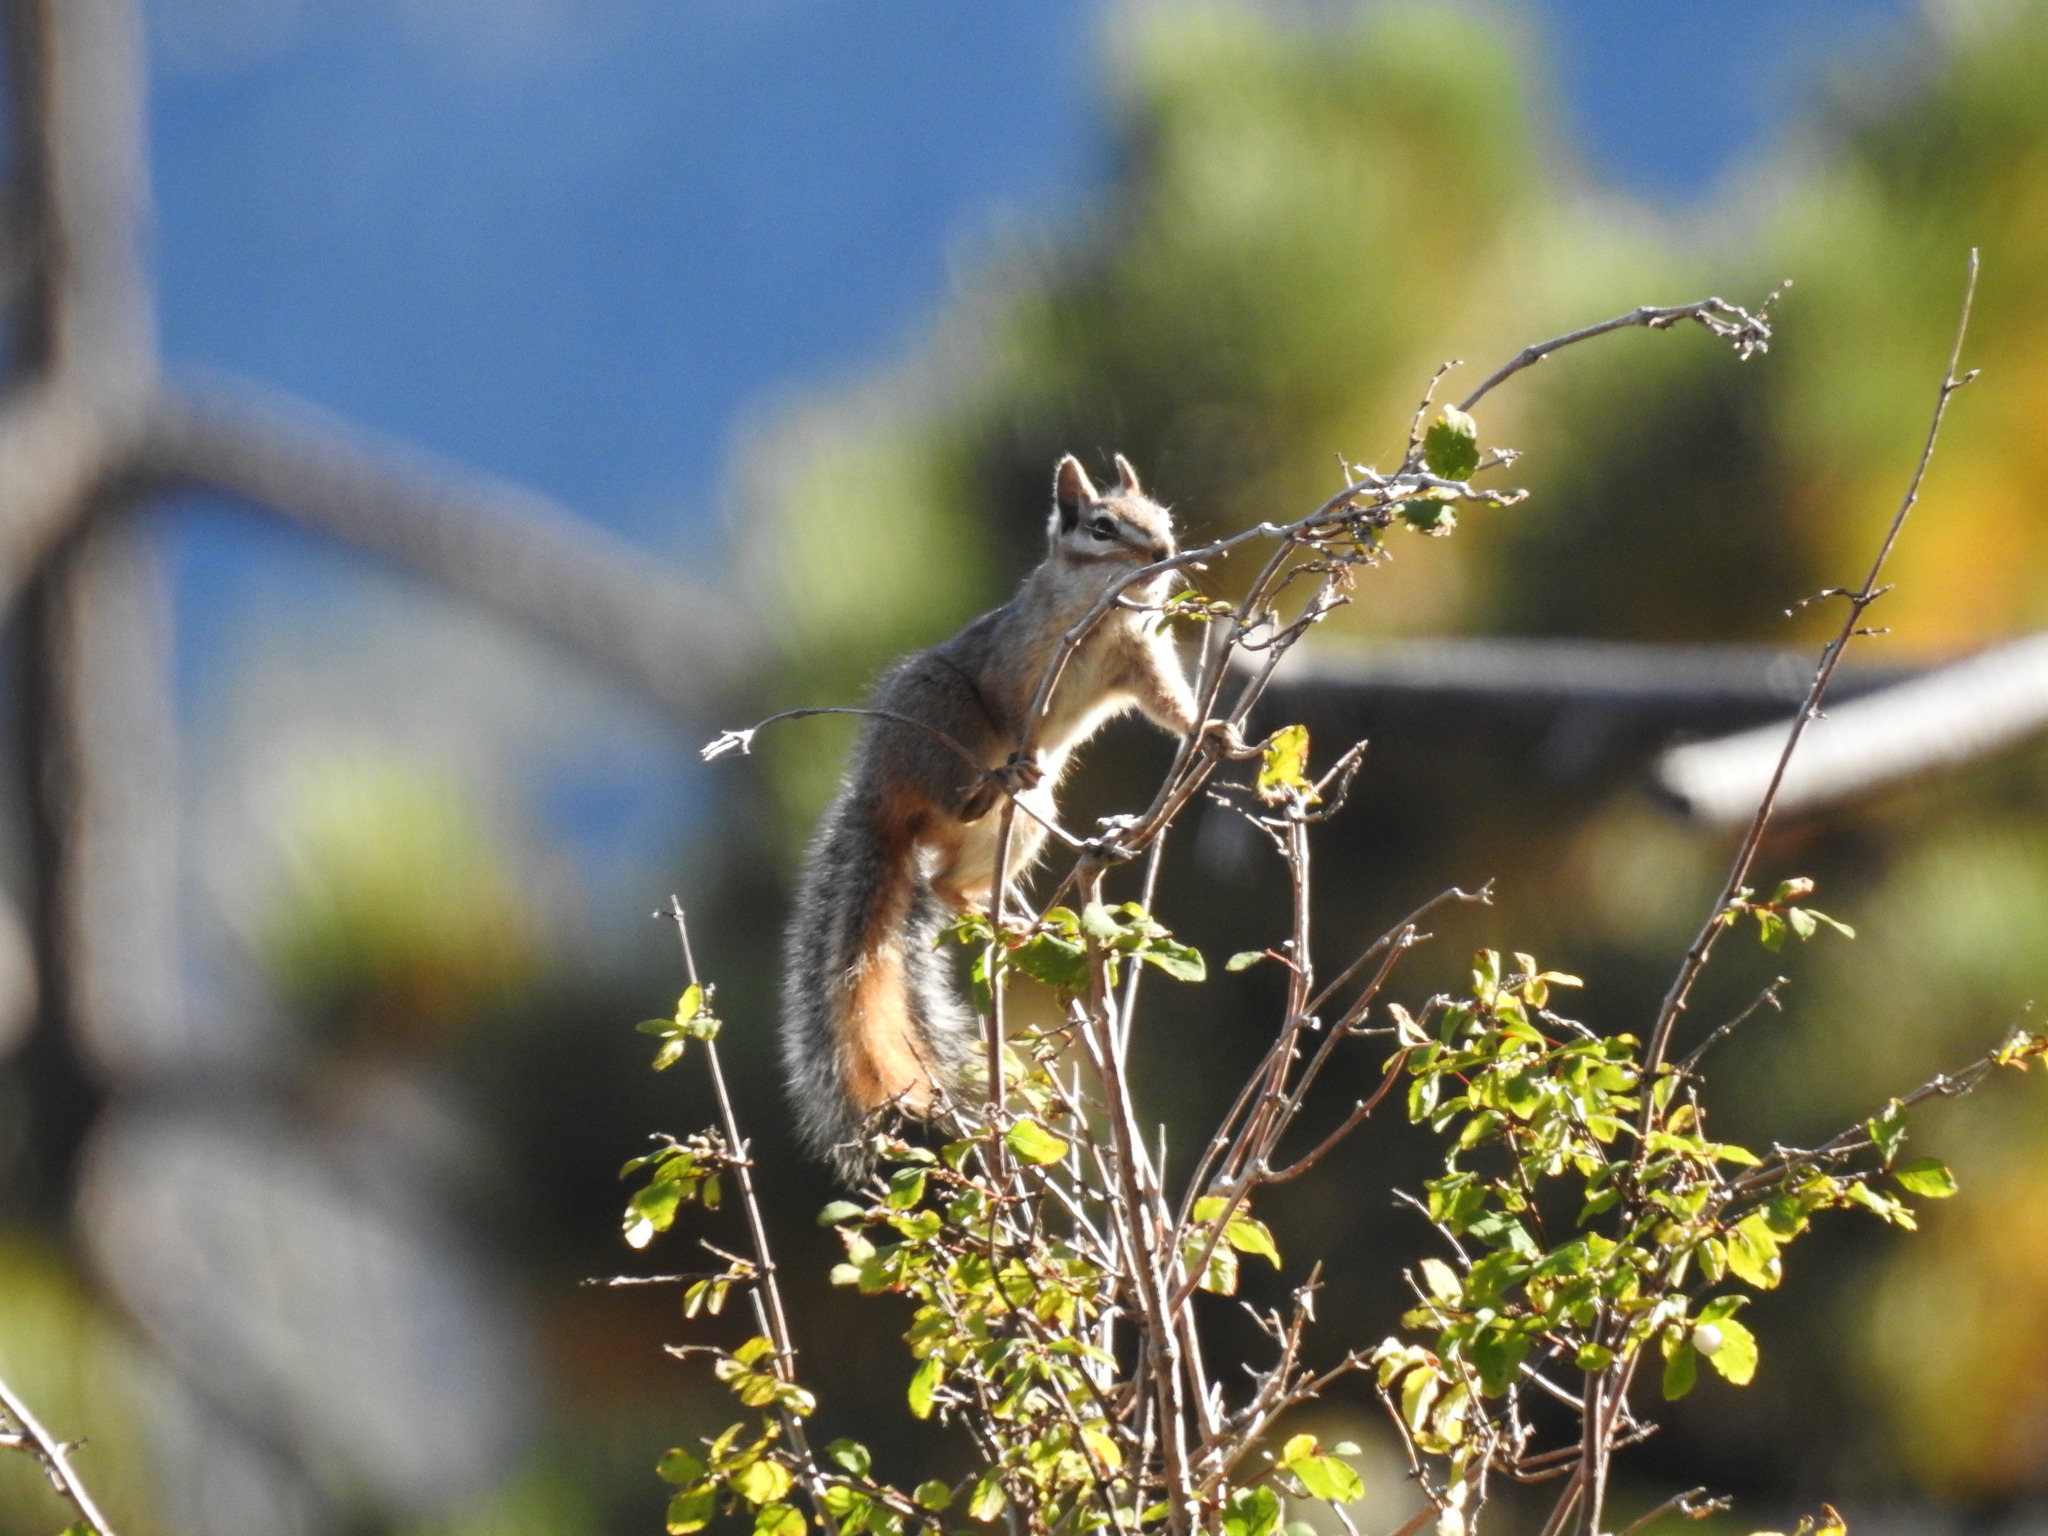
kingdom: Animalia
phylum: Chordata
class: Mammalia
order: Rodentia
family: Sciuridae
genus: Tamias
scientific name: Tamias dorsalis
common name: Cliff chipmunk
